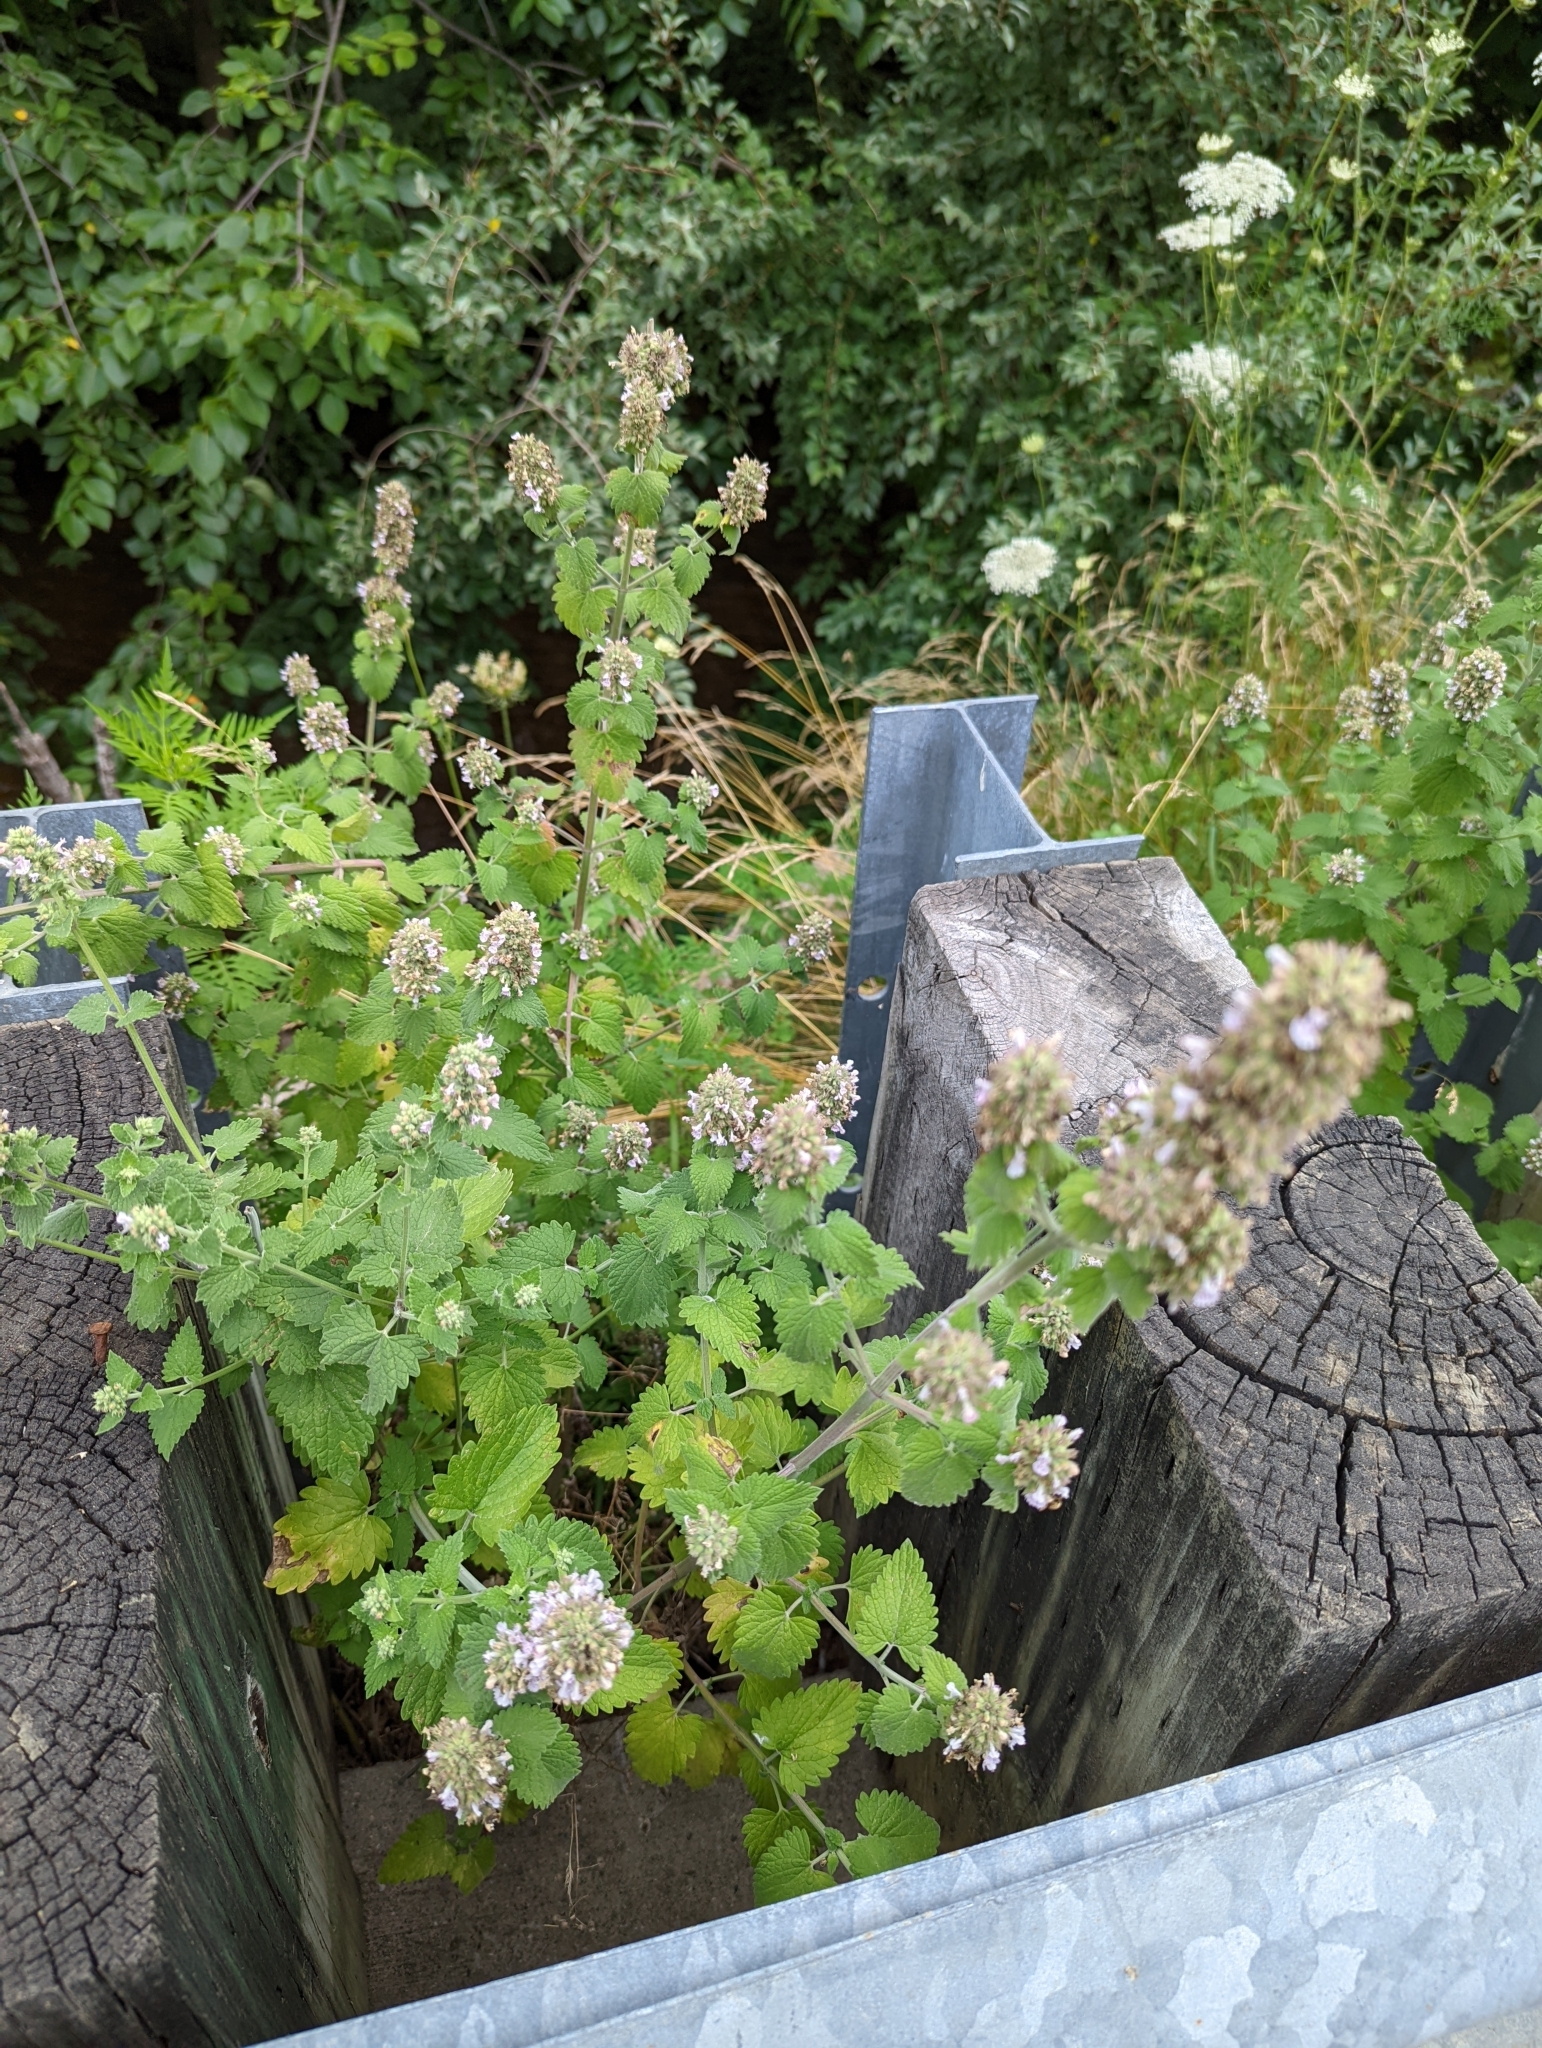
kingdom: Plantae
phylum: Tracheophyta
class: Magnoliopsida
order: Lamiales
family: Lamiaceae
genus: Nepeta
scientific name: Nepeta cataria
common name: Catnip
